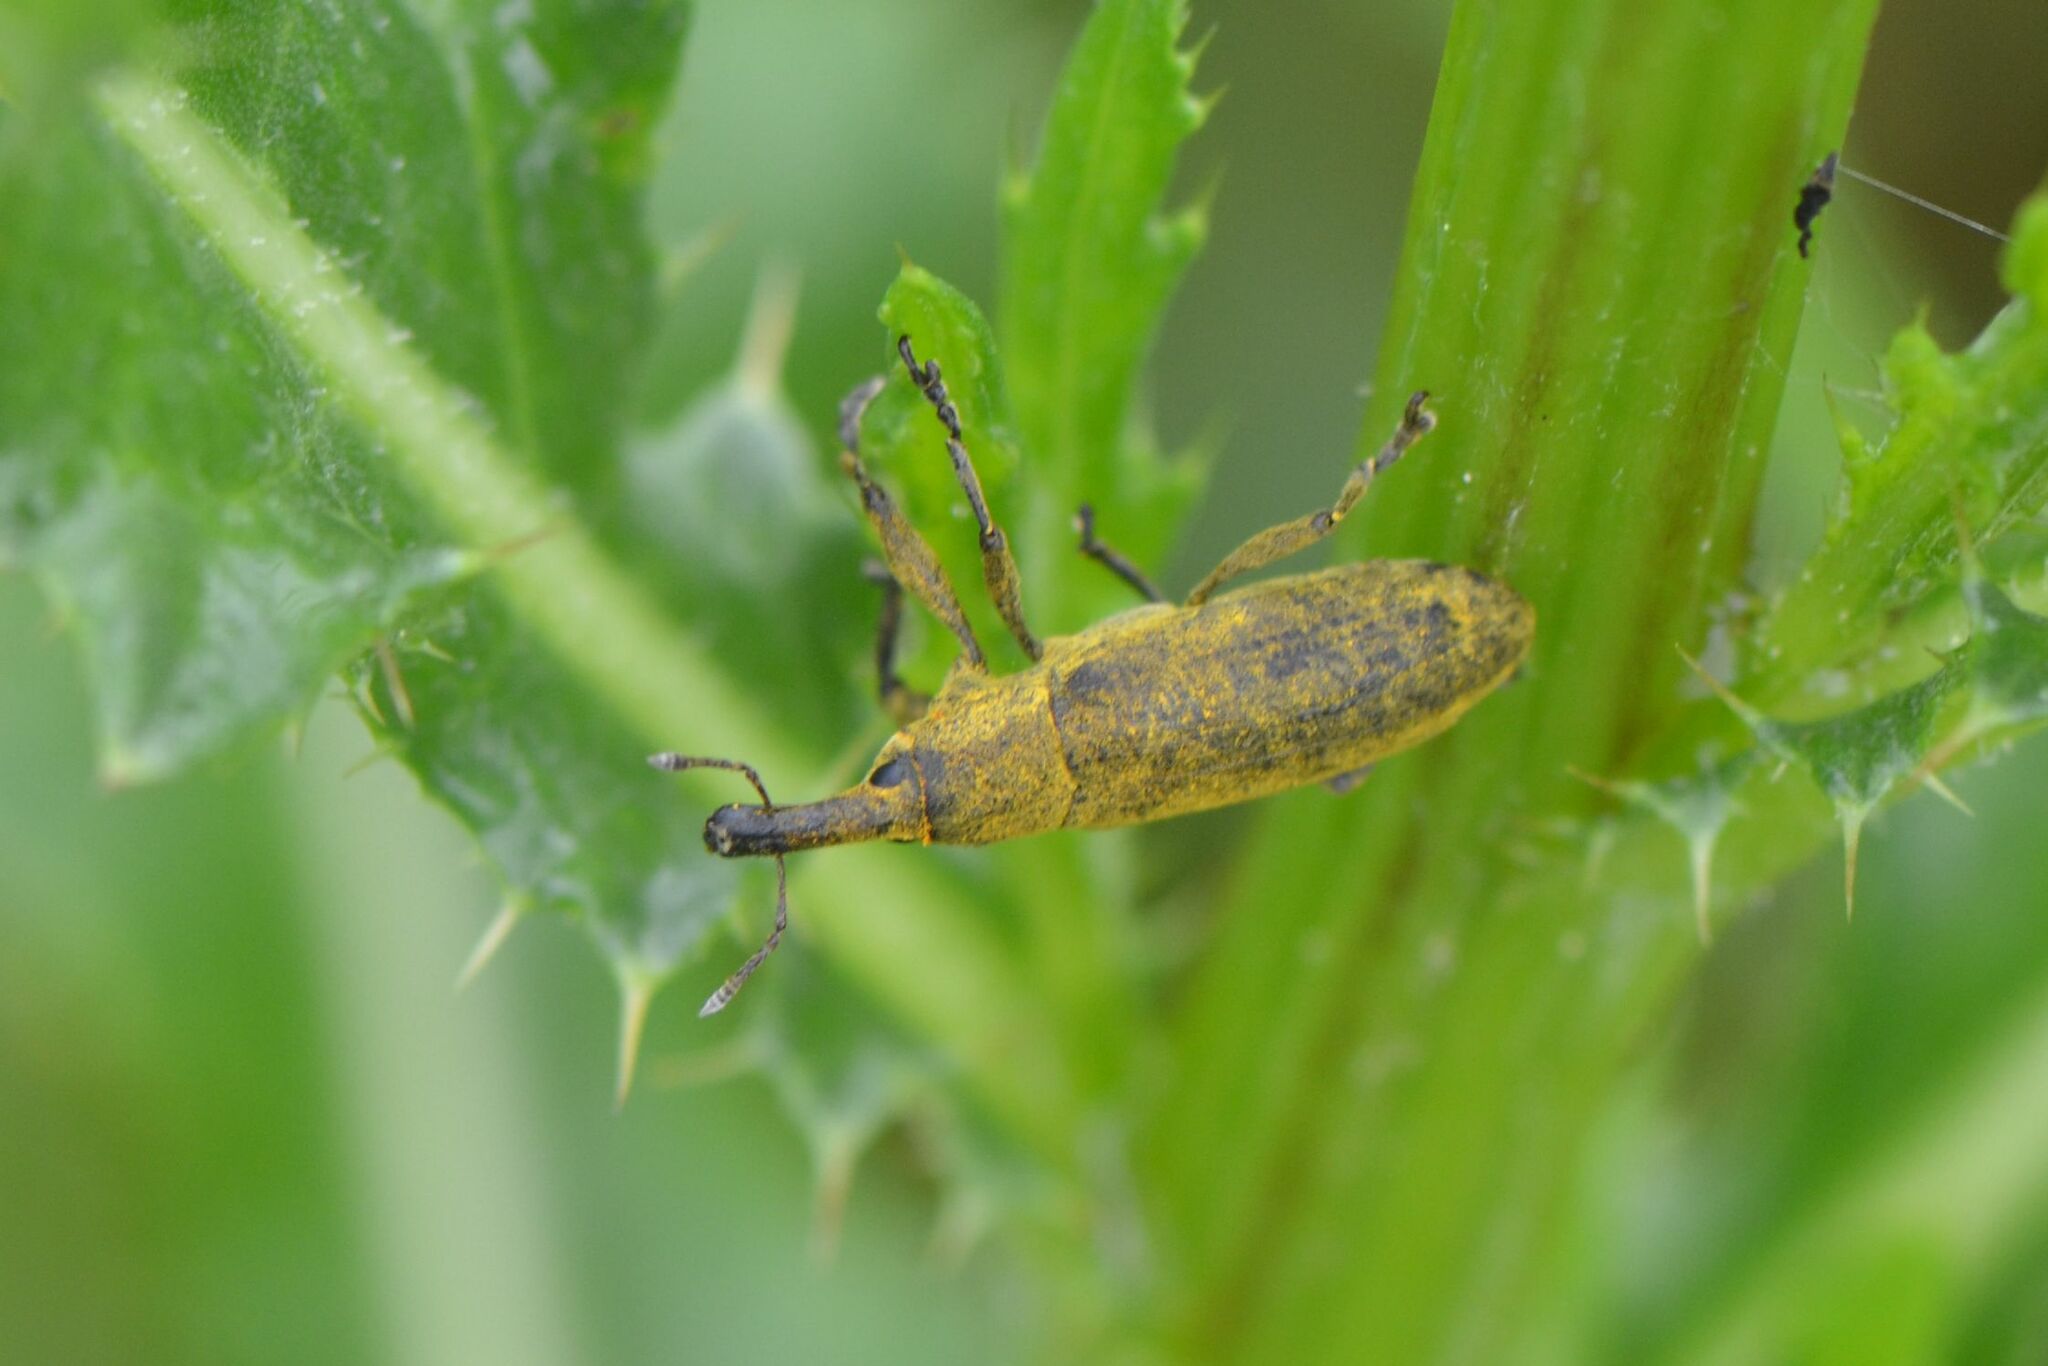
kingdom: Animalia
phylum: Arthropoda
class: Insecta
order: Coleoptera
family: Curculionidae
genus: Lixus
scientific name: Lixus pulverulentus
